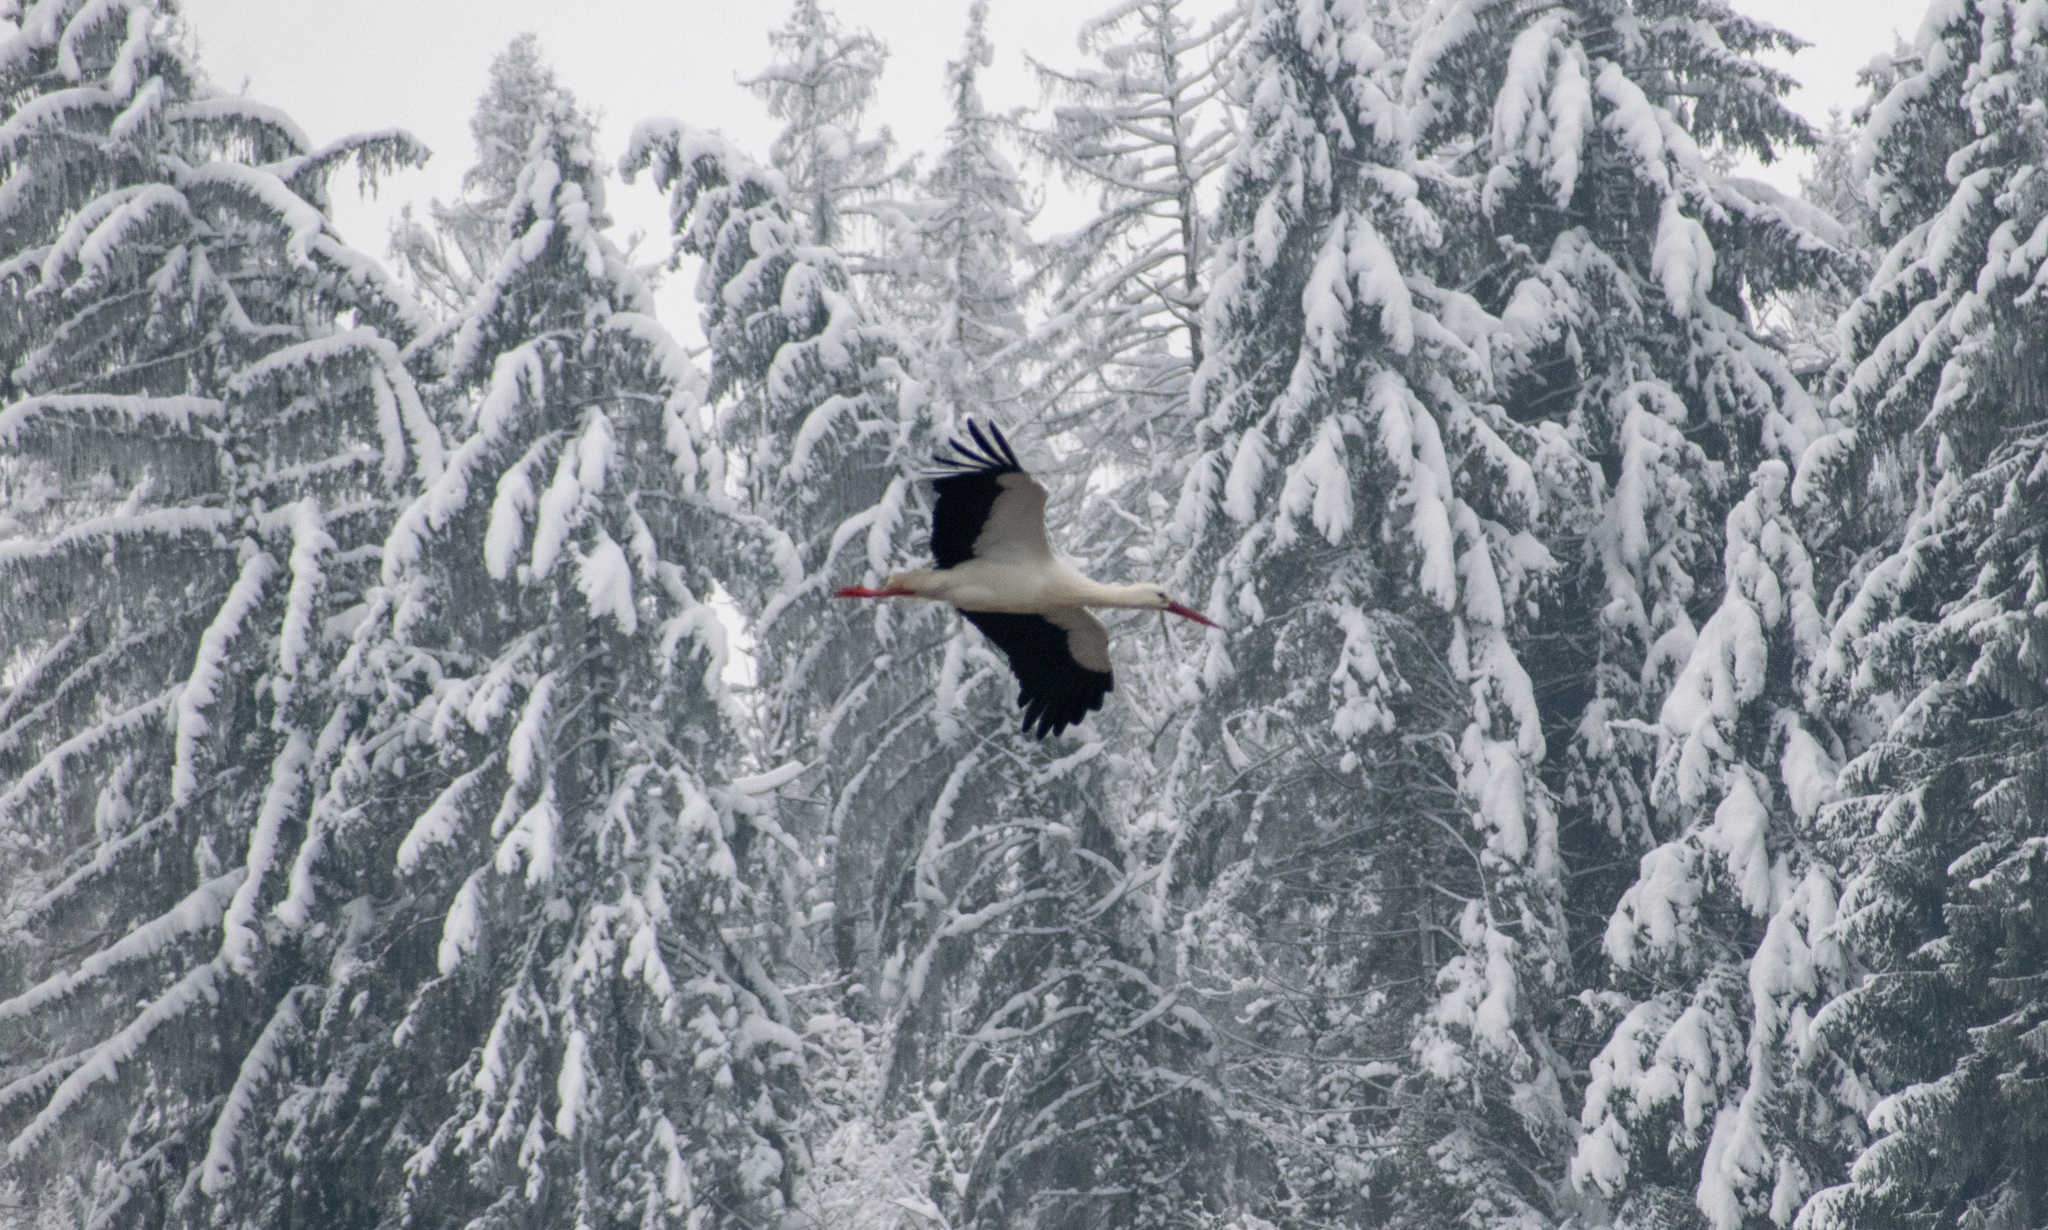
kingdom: Animalia
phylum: Chordata
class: Aves
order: Ciconiiformes
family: Ciconiidae
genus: Ciconia
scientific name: Ciconia ciconia
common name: White stork
